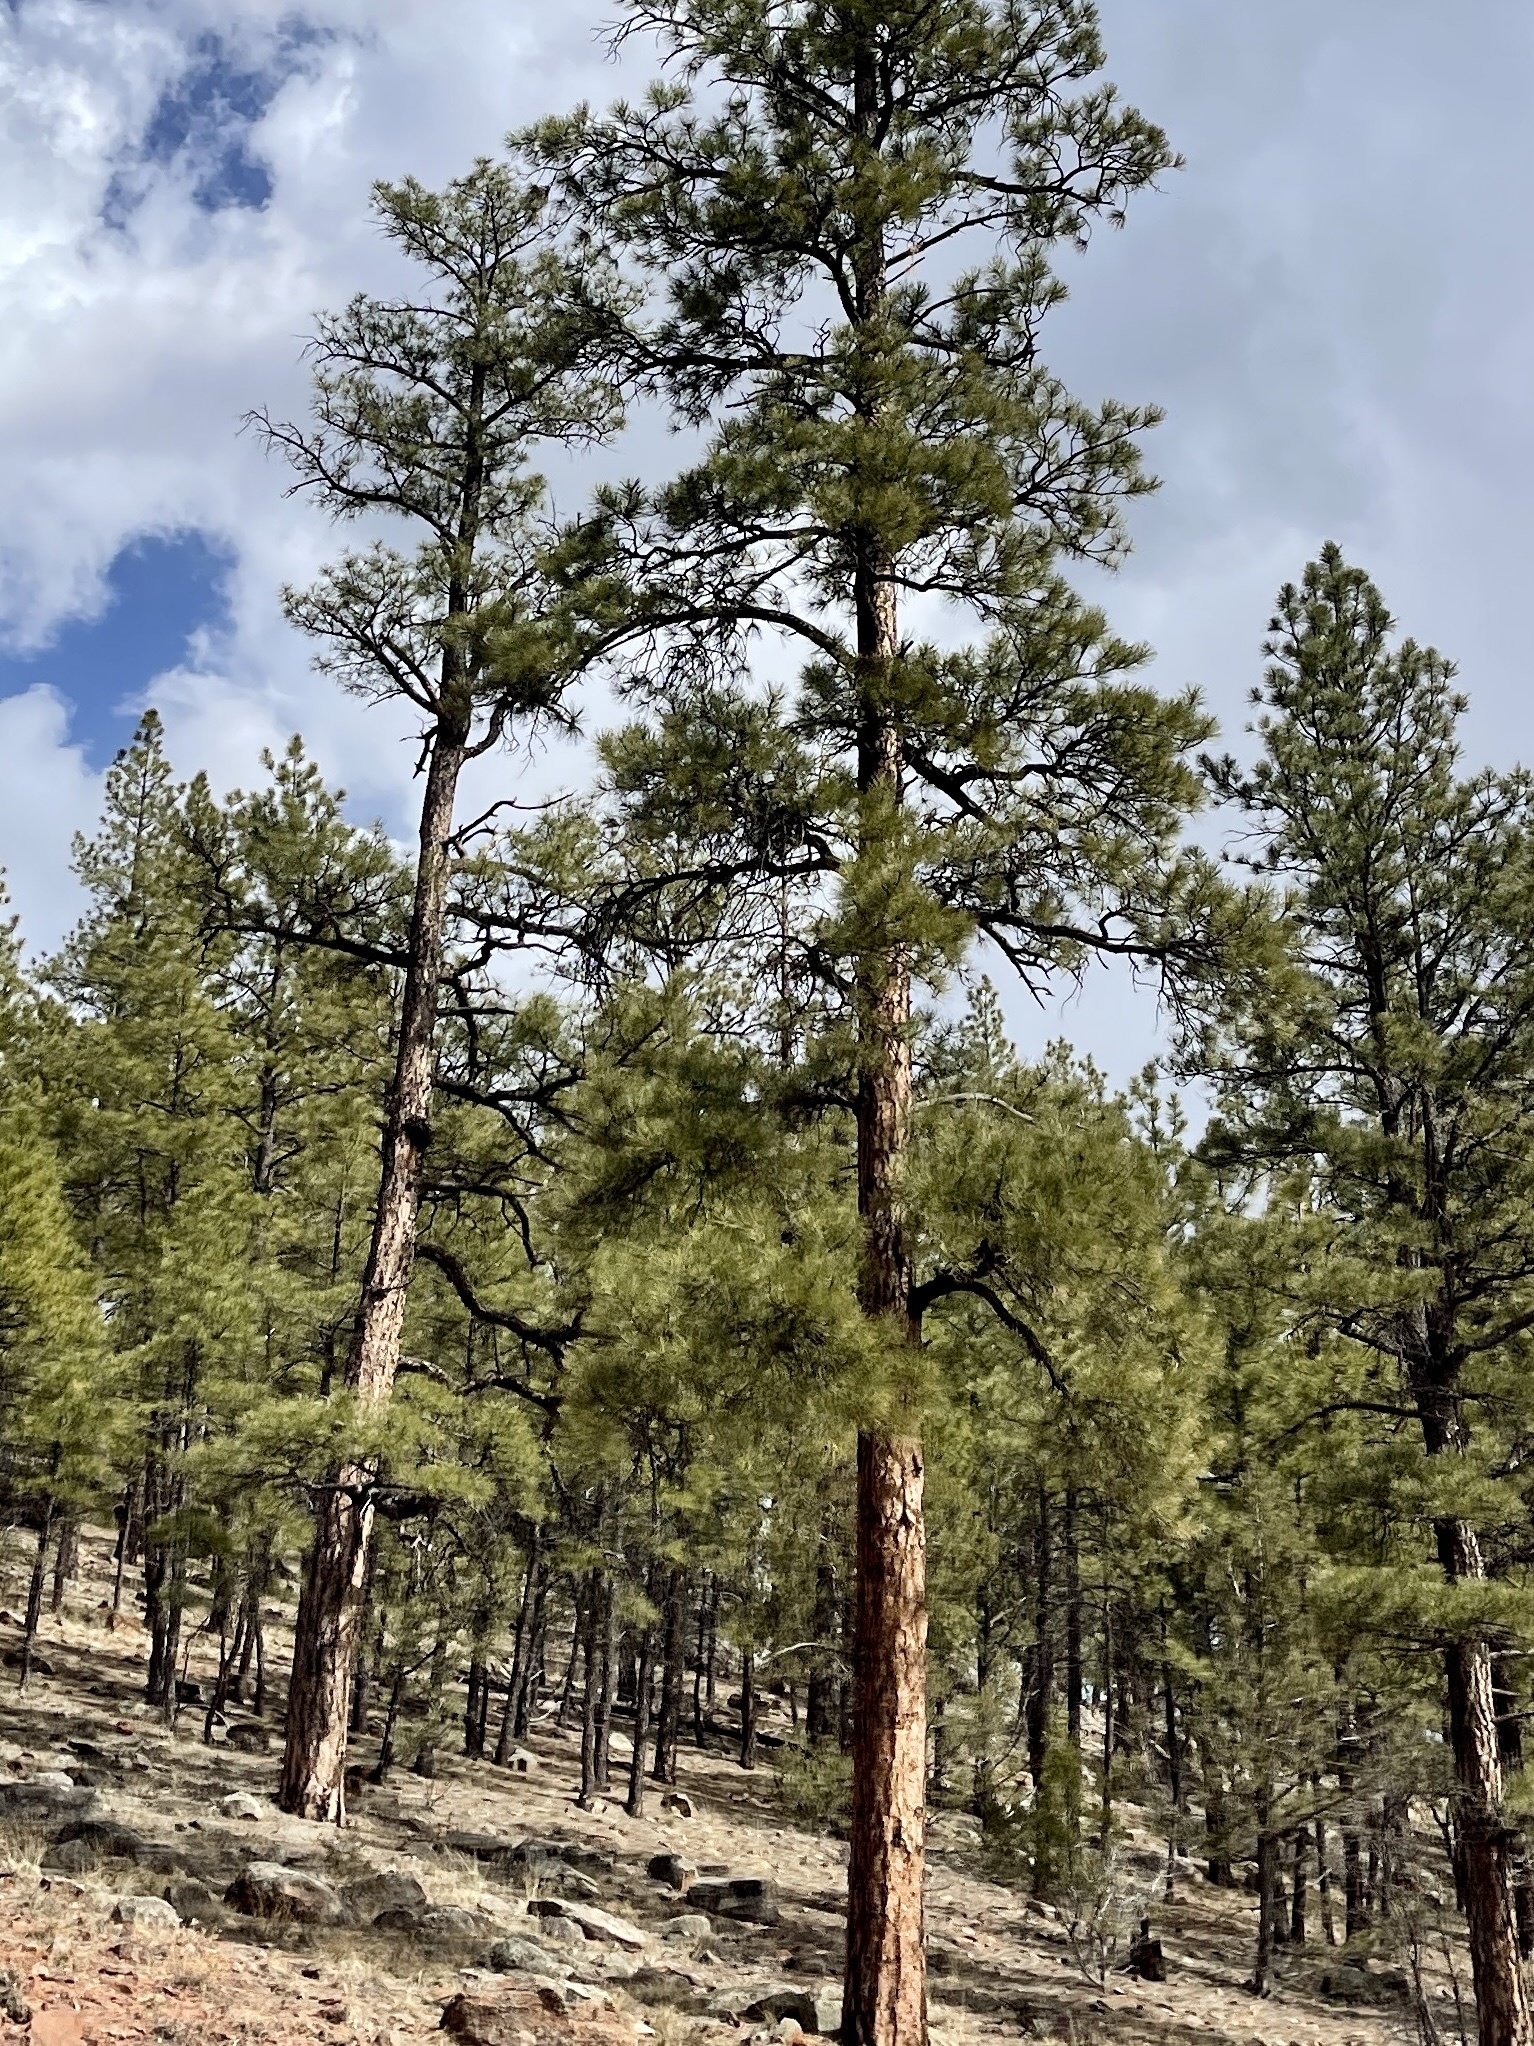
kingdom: Plantae
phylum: Tracheophyta
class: Pinopsida
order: Pinales
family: Pinaceae
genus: Pinus
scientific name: Pinus ponderosa
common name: Western yellow-pine
